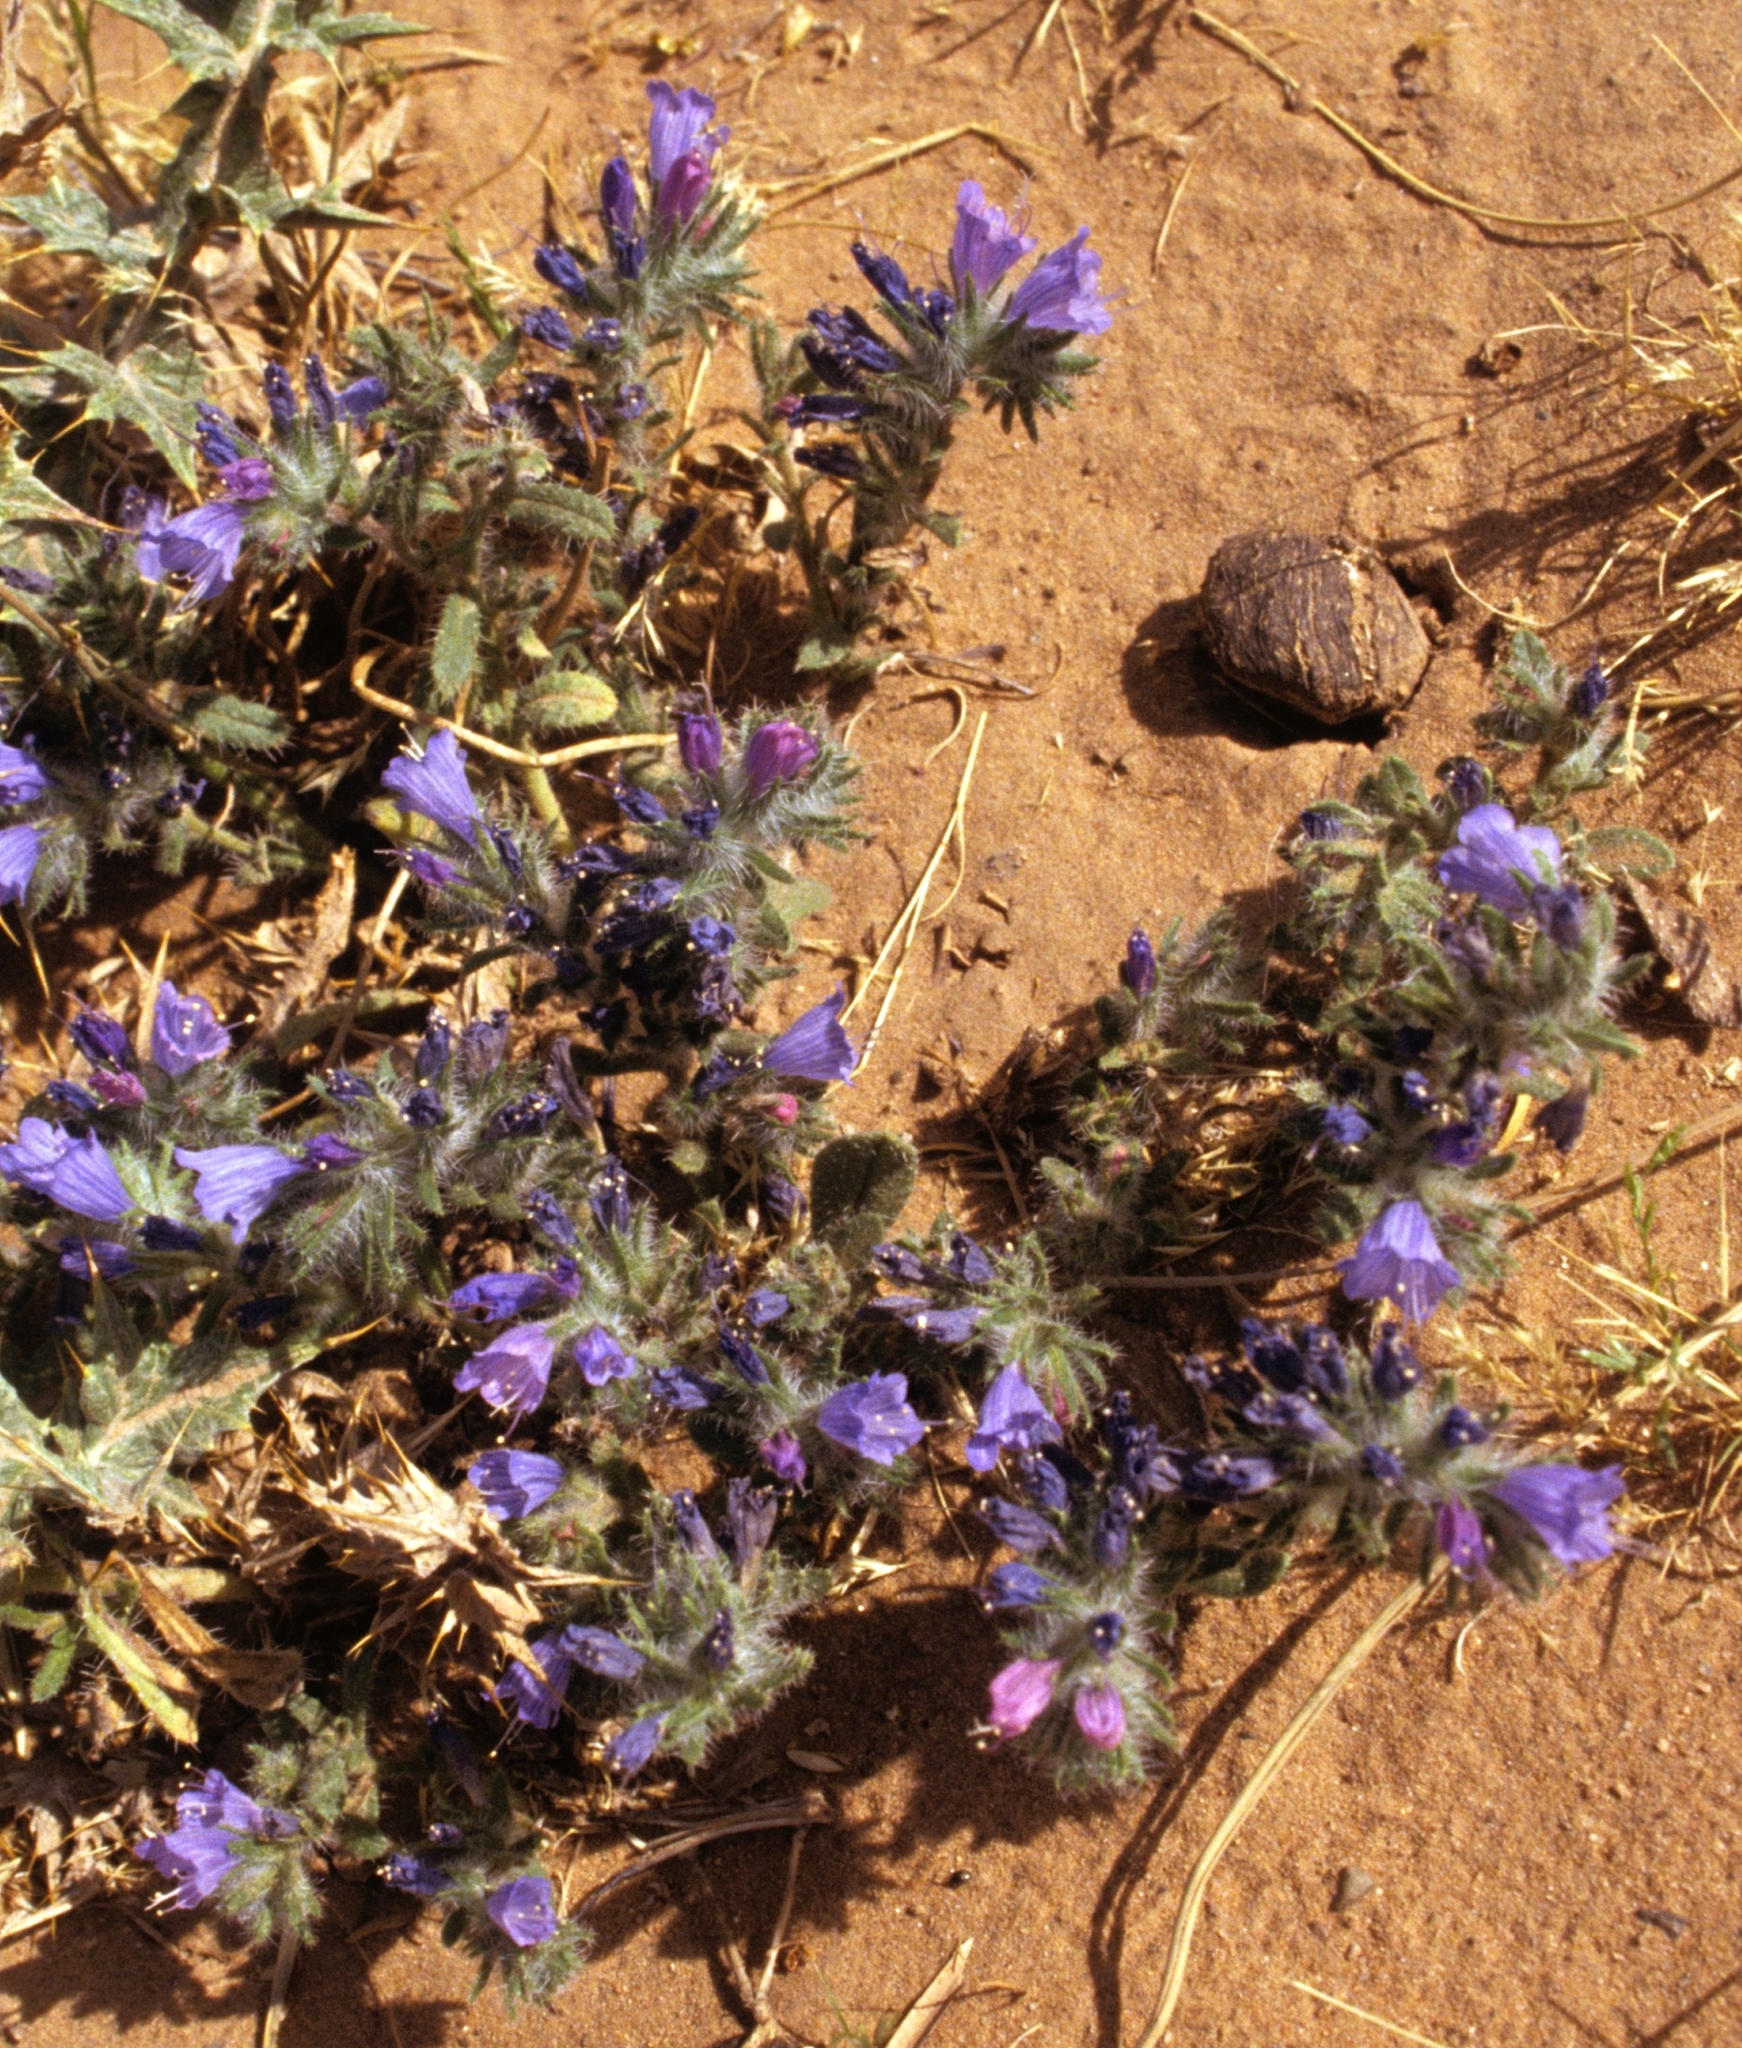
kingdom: Plantae
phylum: Tracheophyta
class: Magnoliopsida
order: Boraginales
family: Boraginaceae
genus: Echium
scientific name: Echium trygorrhizum
